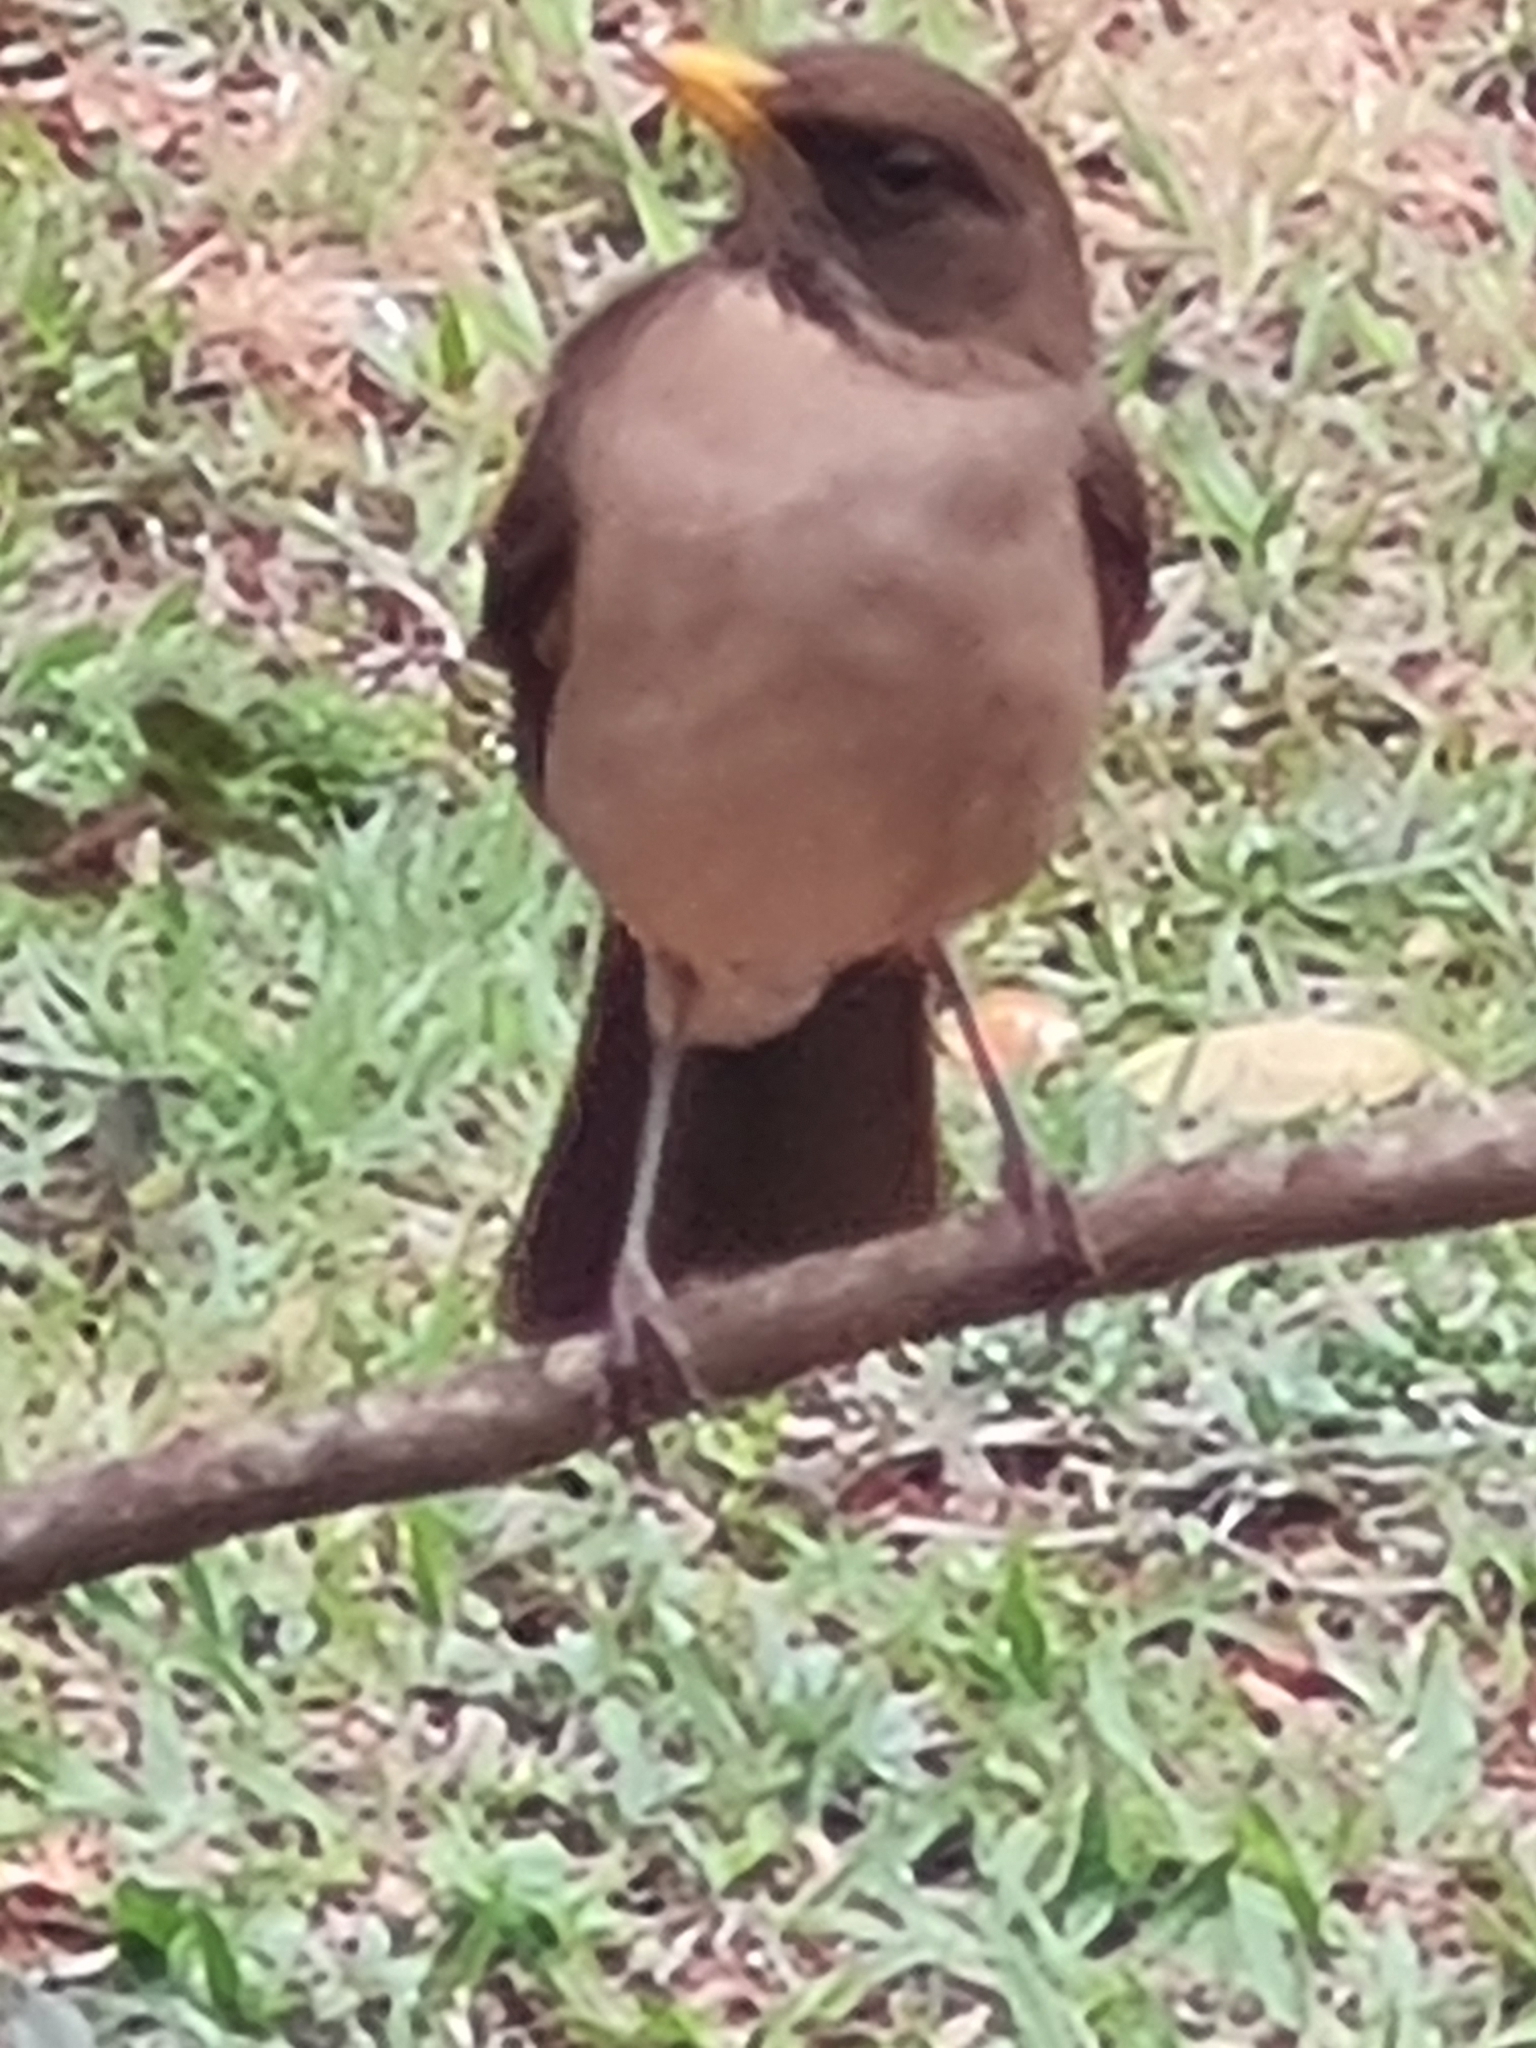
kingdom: Animalia
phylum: Chordata
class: Aves
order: Passeriformes
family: Turdidae
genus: Turdus
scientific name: Turdus amaurochalinus
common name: Creamy-bellied thrush
